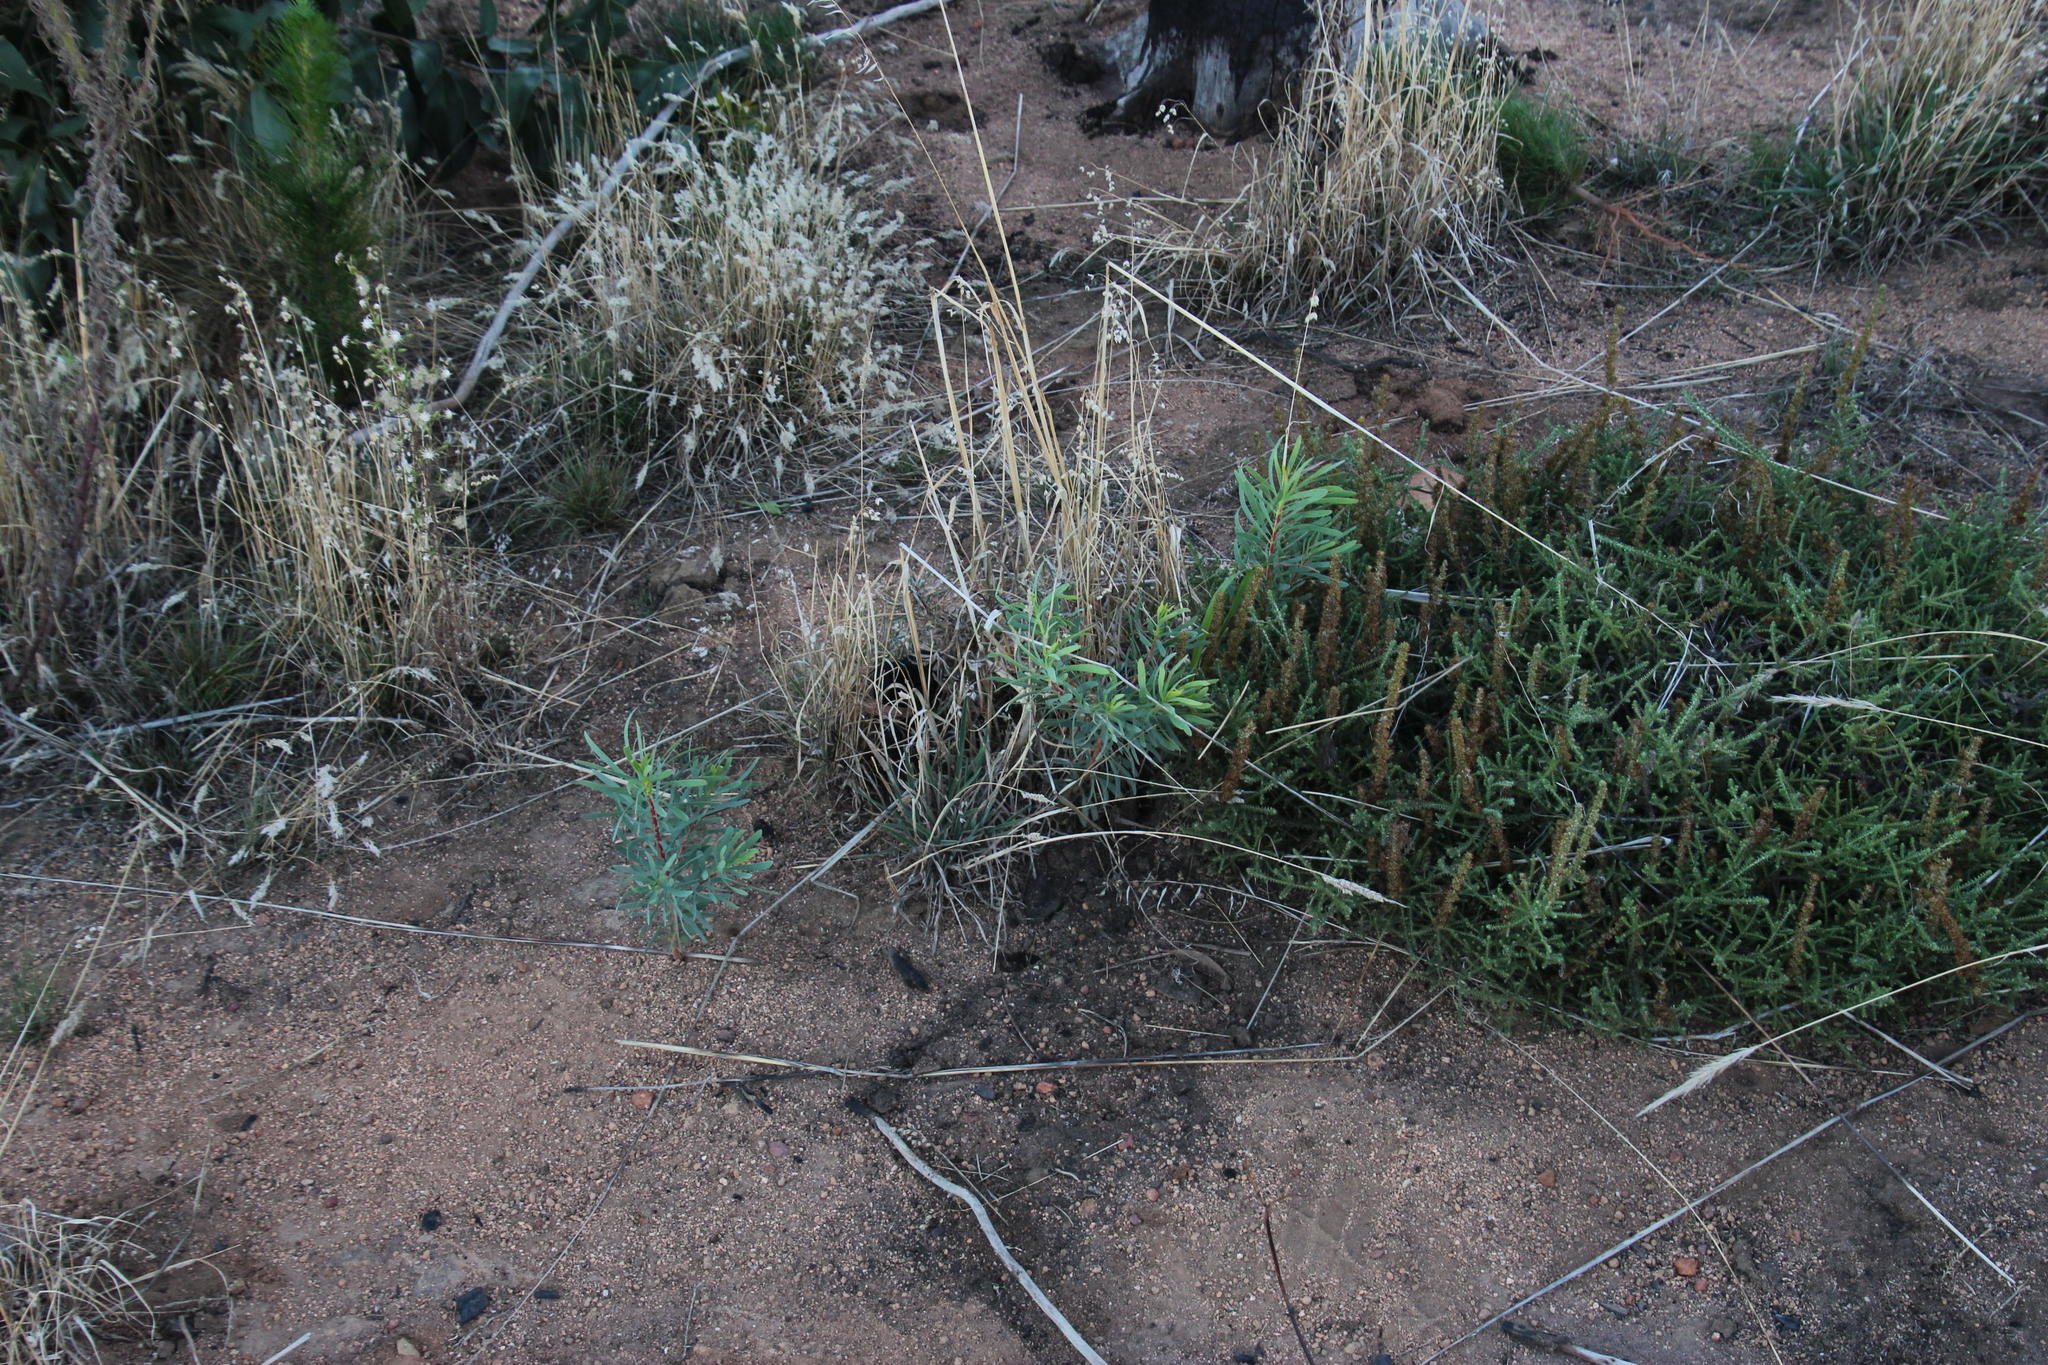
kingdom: Plantae
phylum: Tracheophyta
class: Magnoliopsida
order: Proteales
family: Proteaceae
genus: Protea
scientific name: Protea repens
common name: Sugarbush
